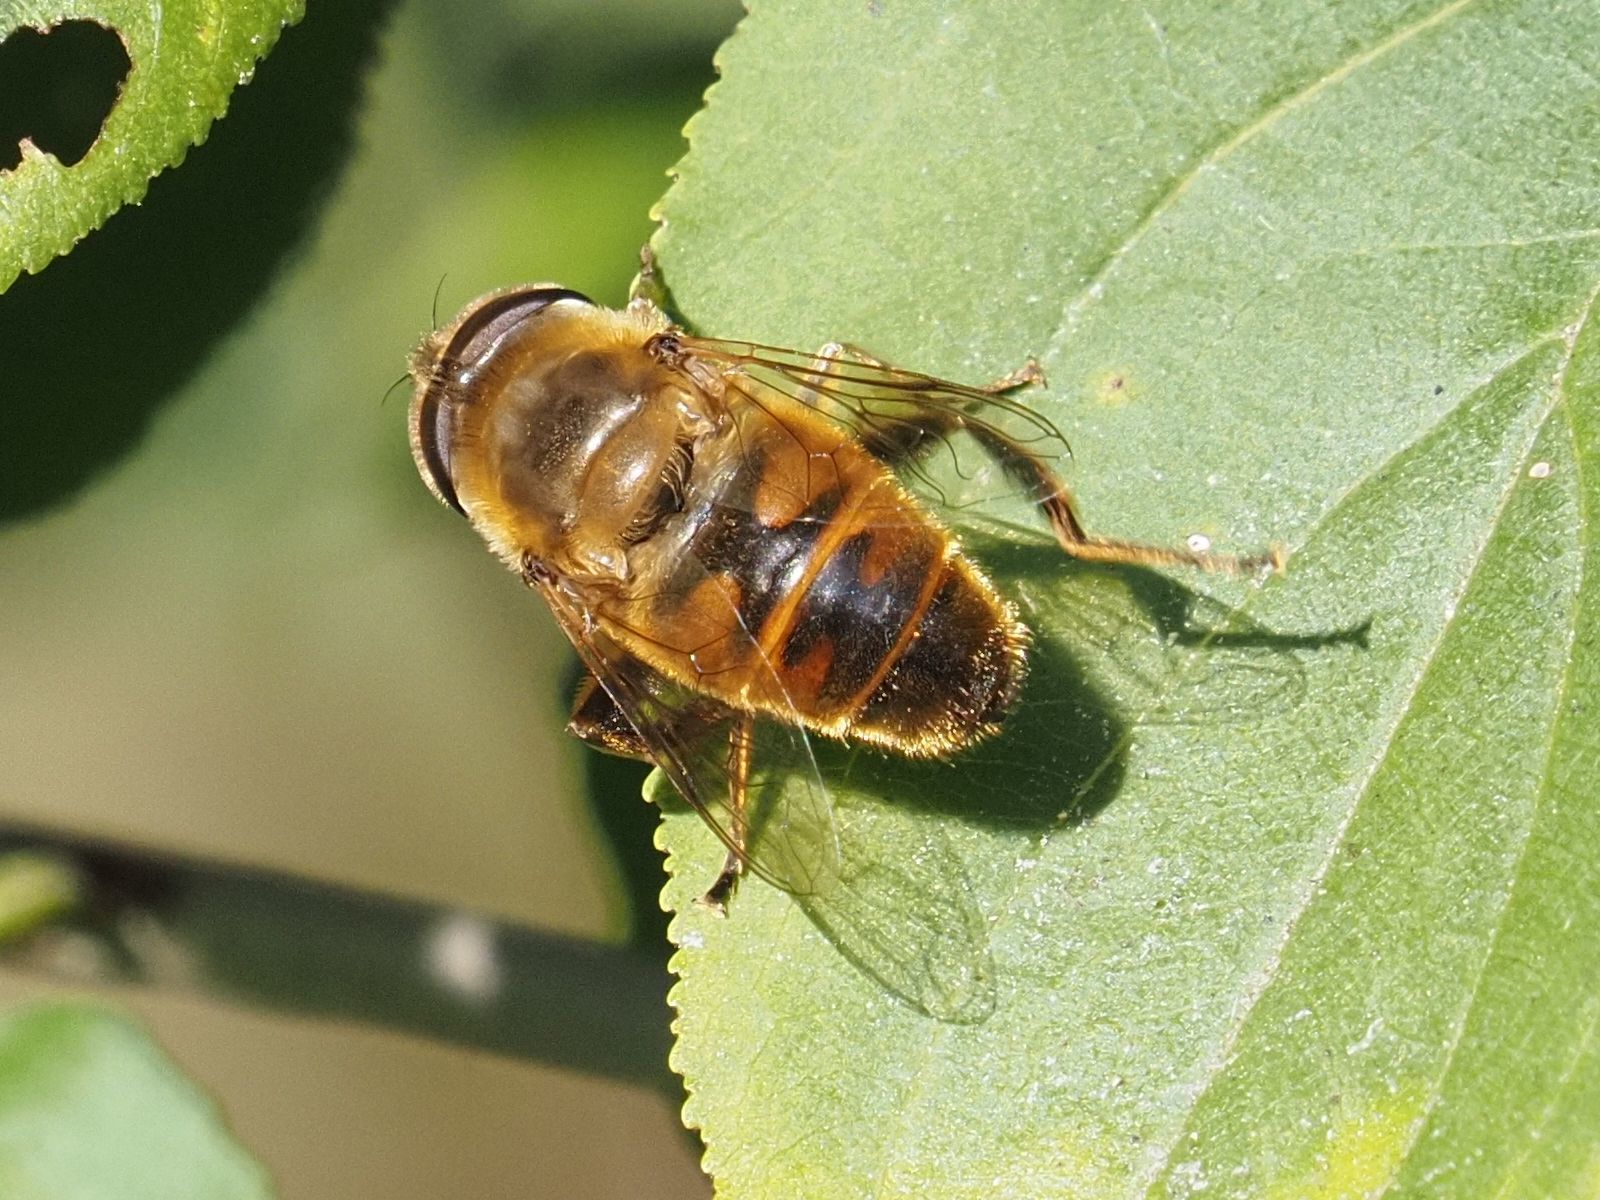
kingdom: Animalia
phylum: Arthropoda
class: Insecta
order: Diptera
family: Syrphidae
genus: Eristalis
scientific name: Eristalis tenax
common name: Drone fly
